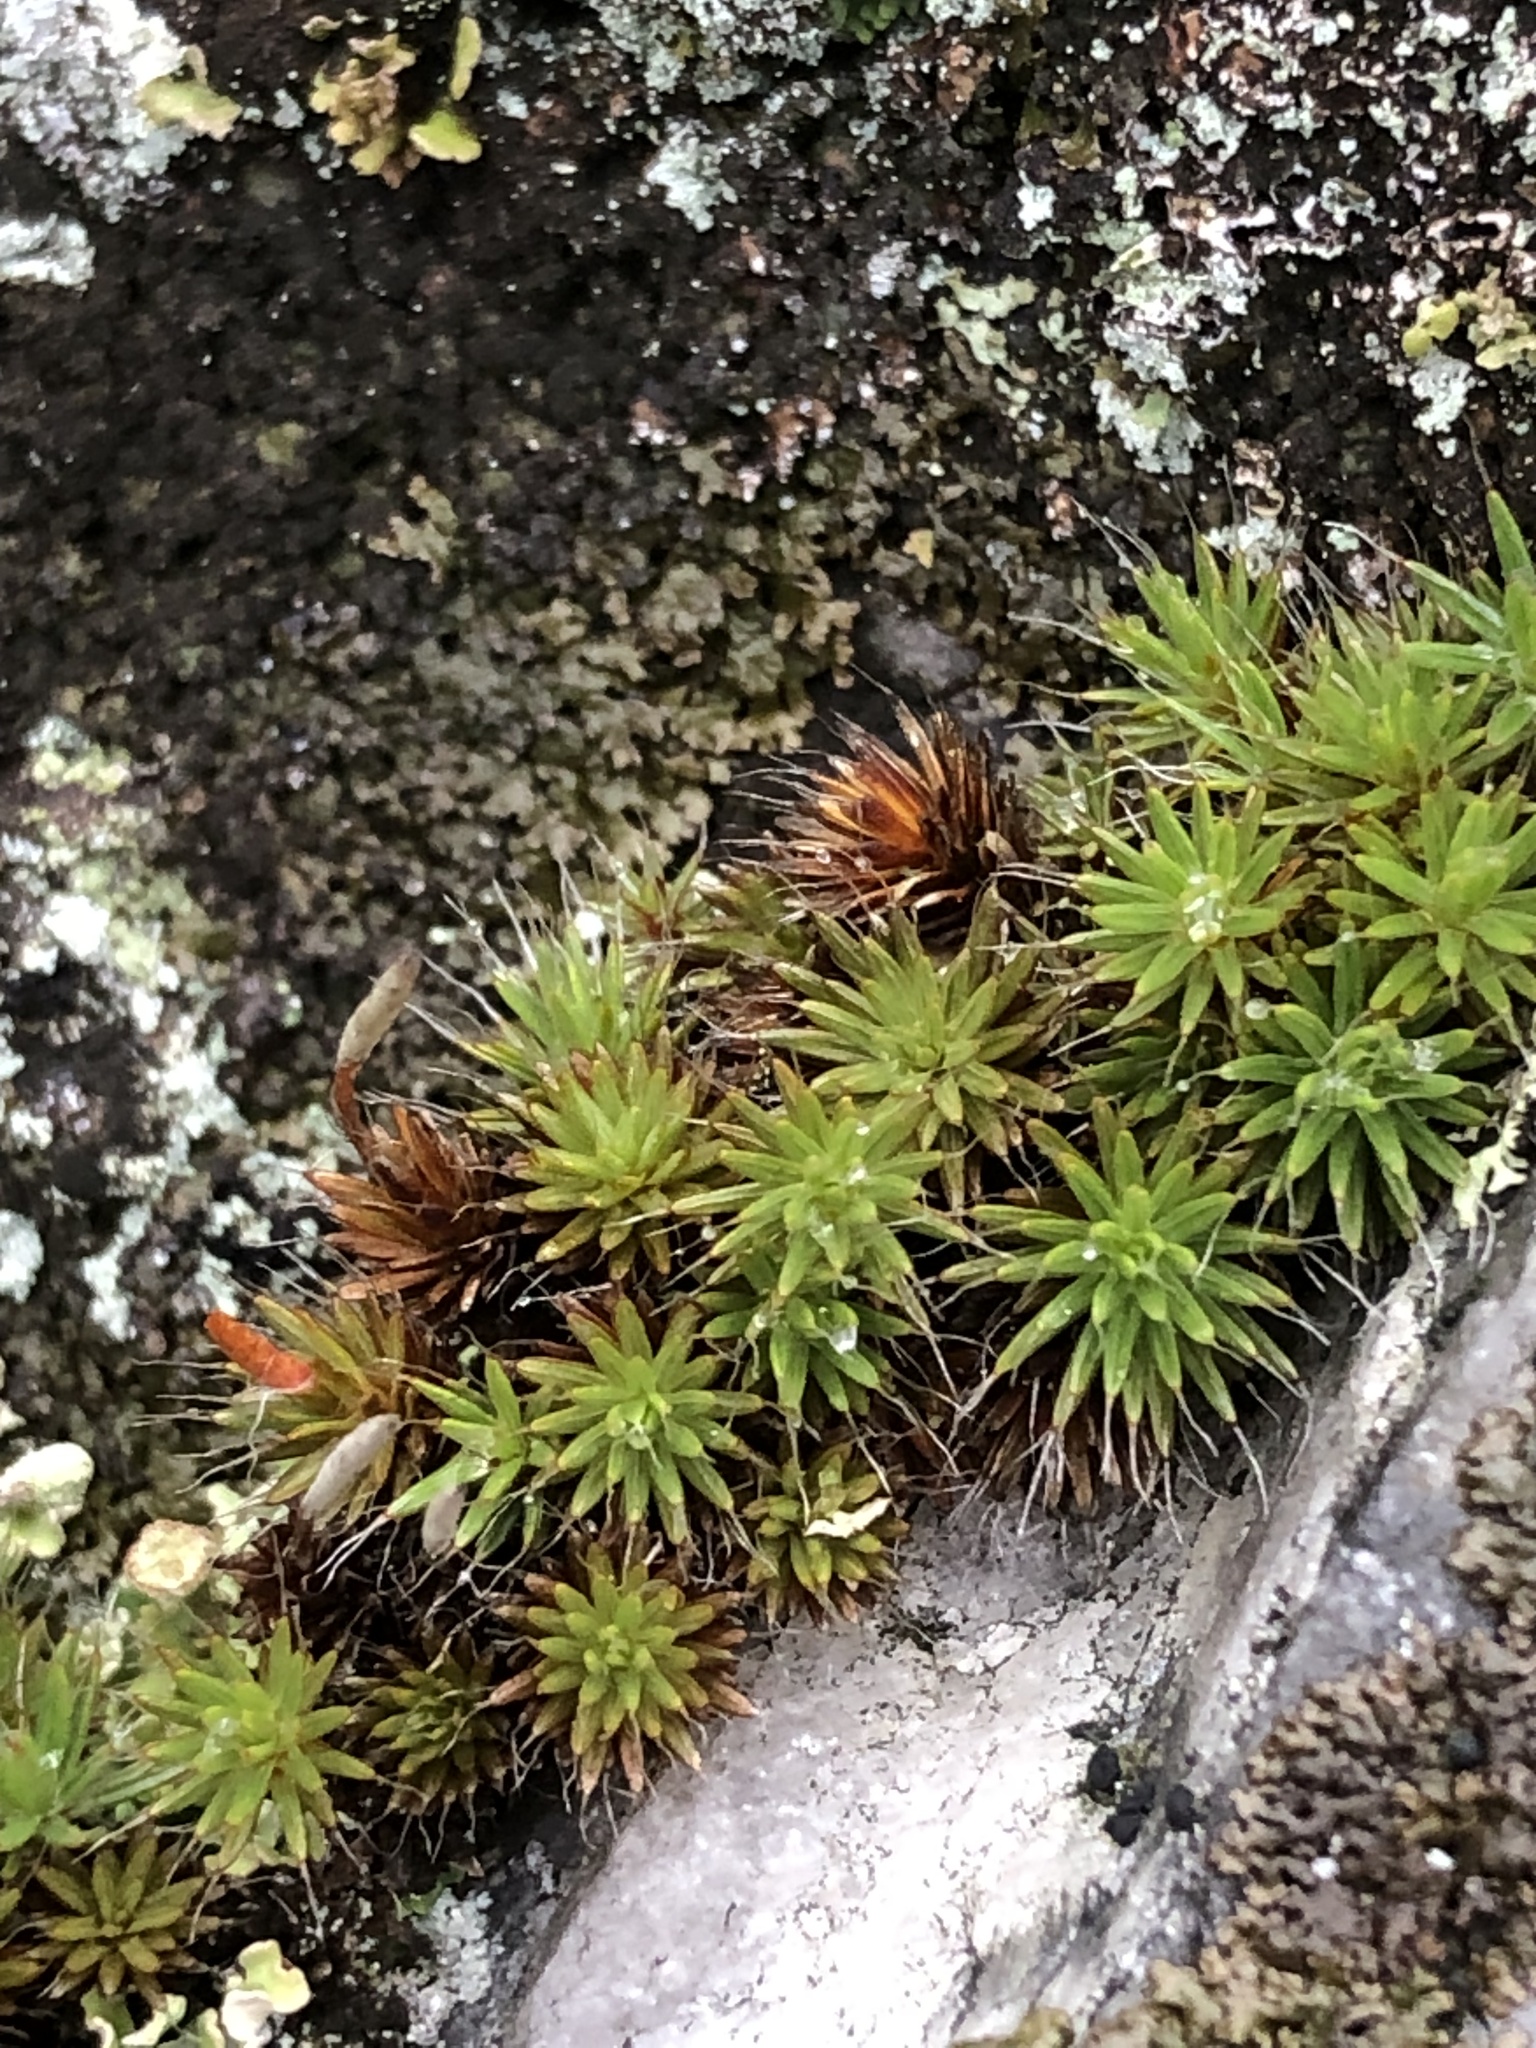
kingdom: Plantae
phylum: Bryophyta
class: Polytrichopsida
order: Polytrichales
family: Polytrichaceae
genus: Polytrichum
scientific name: Polytrichum piliferum
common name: Bristly haircap
